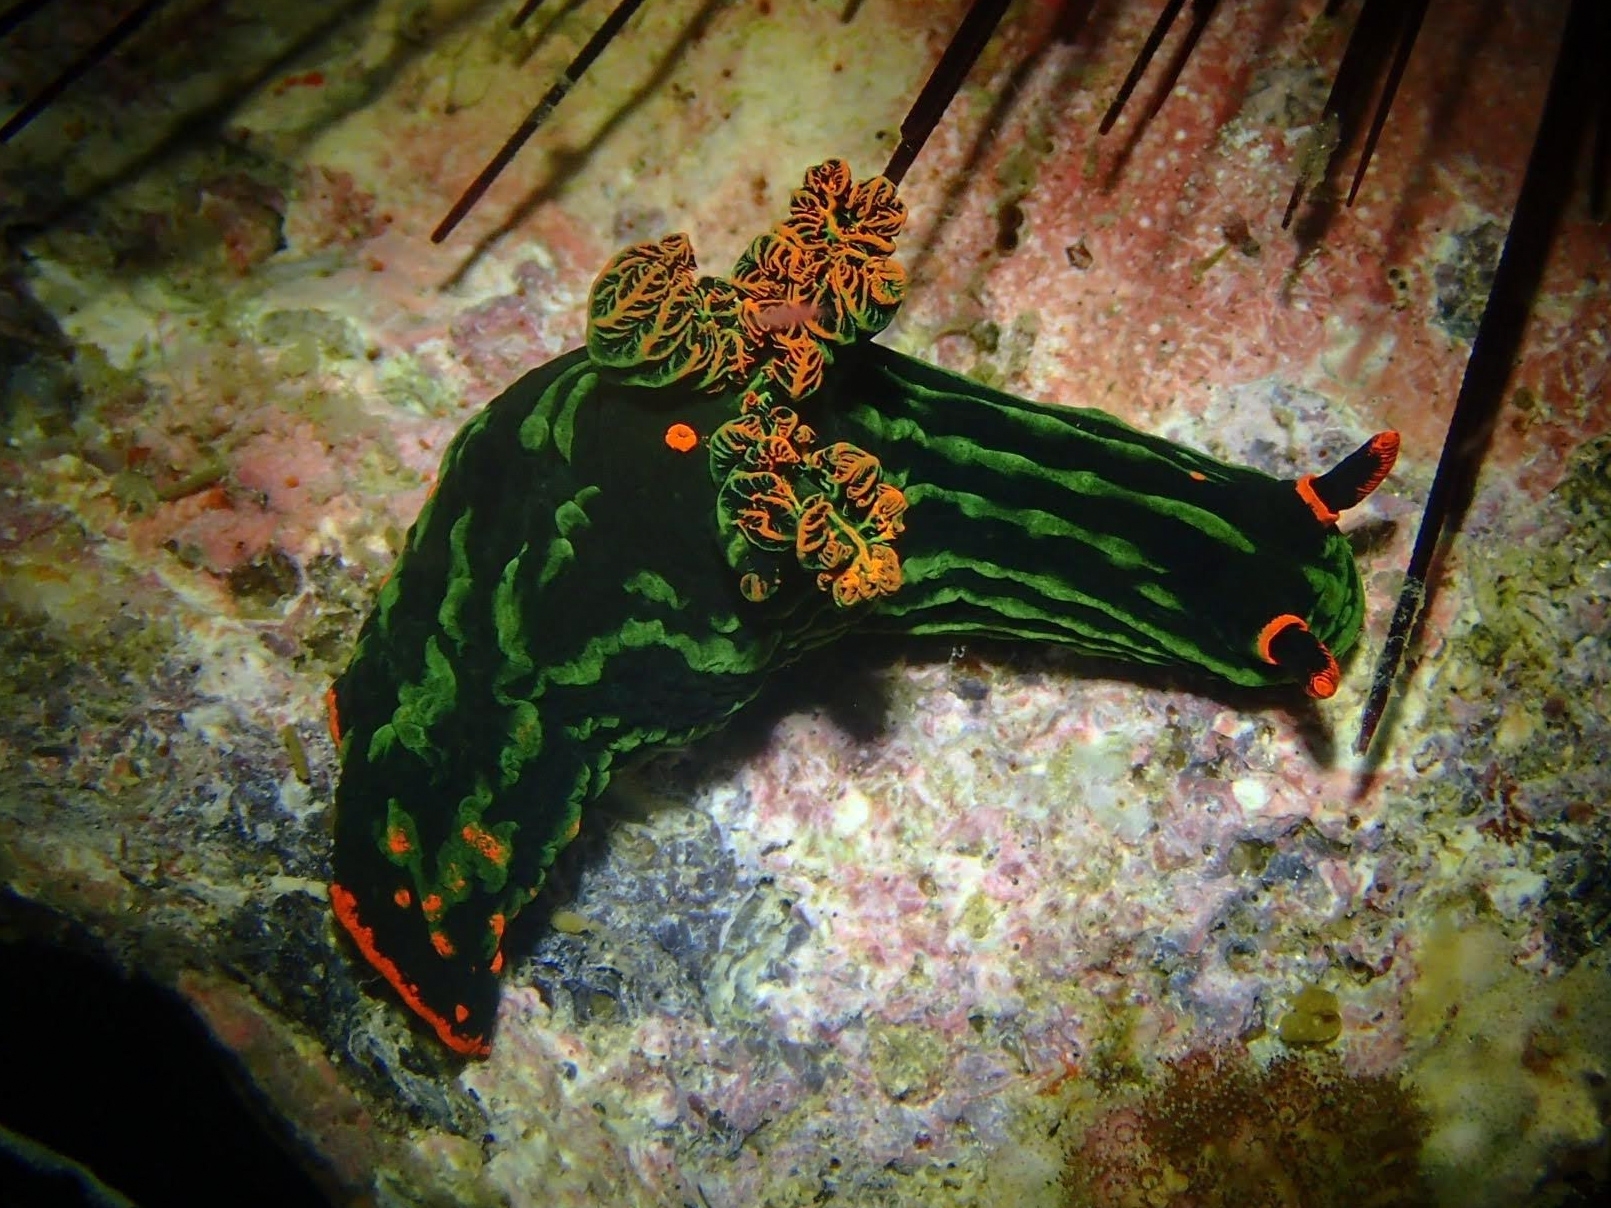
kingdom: Animalia
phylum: Mollusca
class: Gastropoda
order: Nudibranchia
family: Polyceridae
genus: Nembrotha
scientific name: Nembrotha kubaryana
